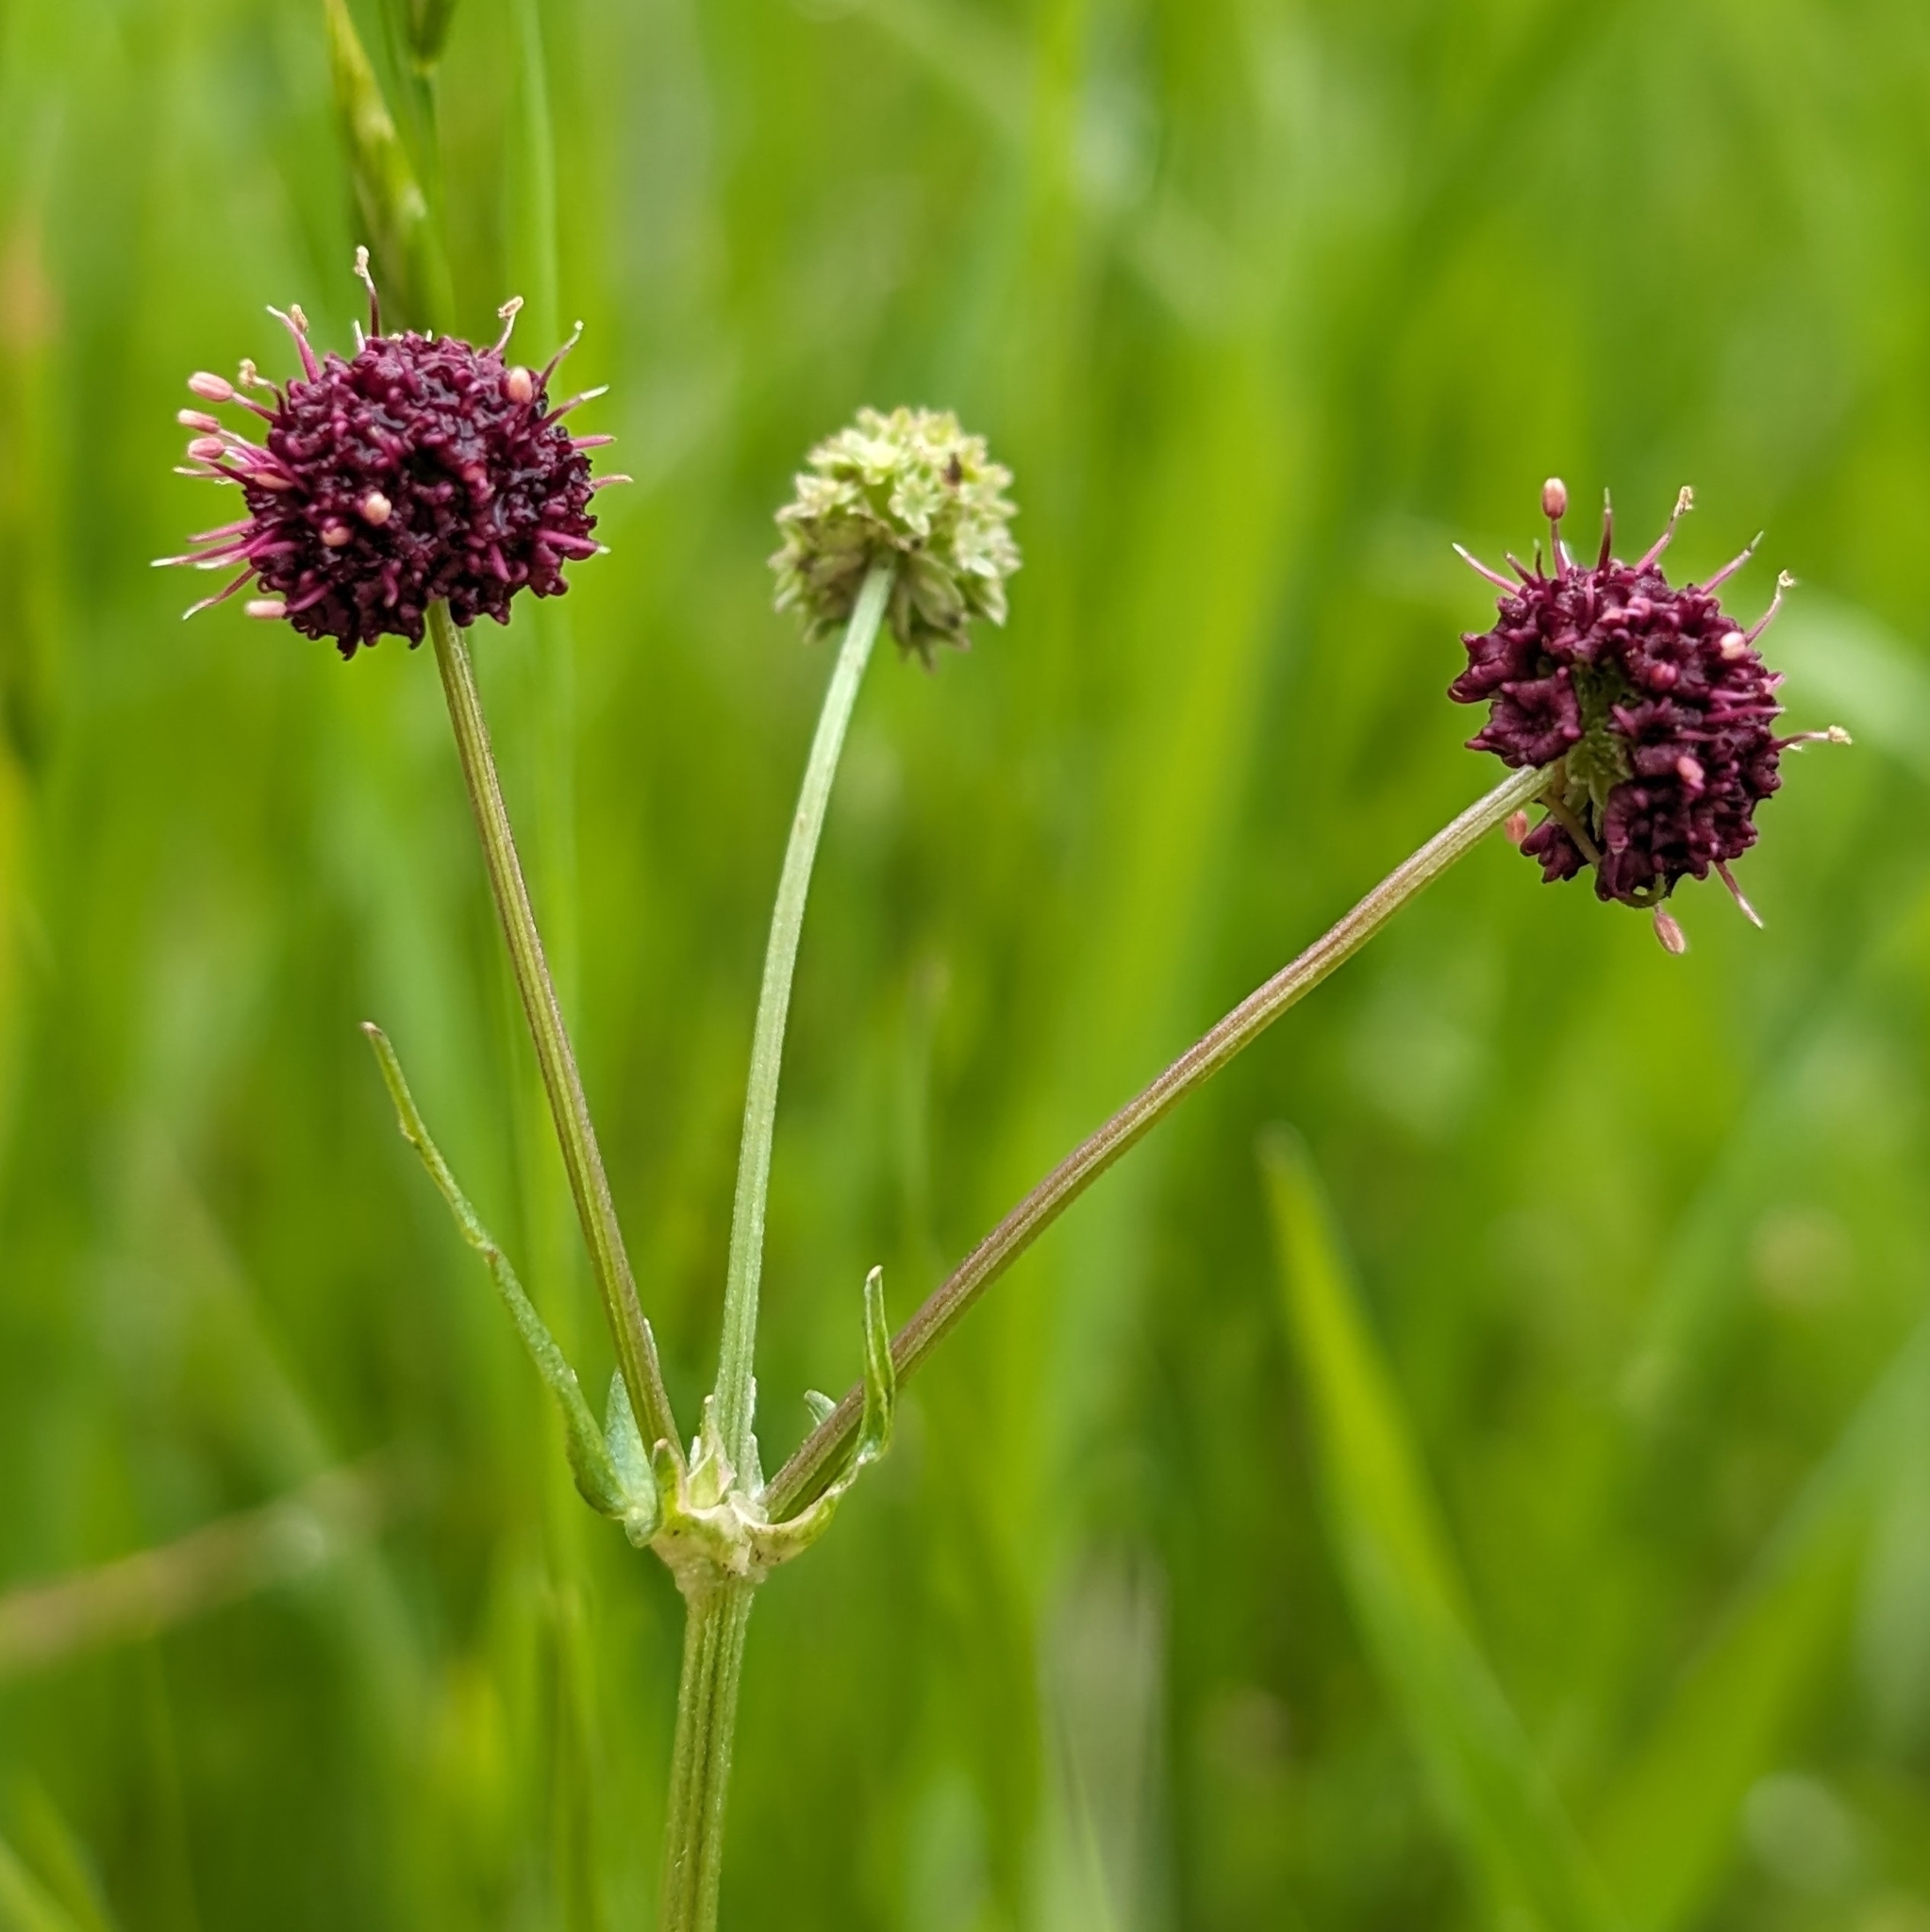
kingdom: Plantae
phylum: Tracheophyta
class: Magnoliopsida
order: Apiales
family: Apiaceae
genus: Sanicula
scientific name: Sanicula bipinnatifida
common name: Shoe-buttons
